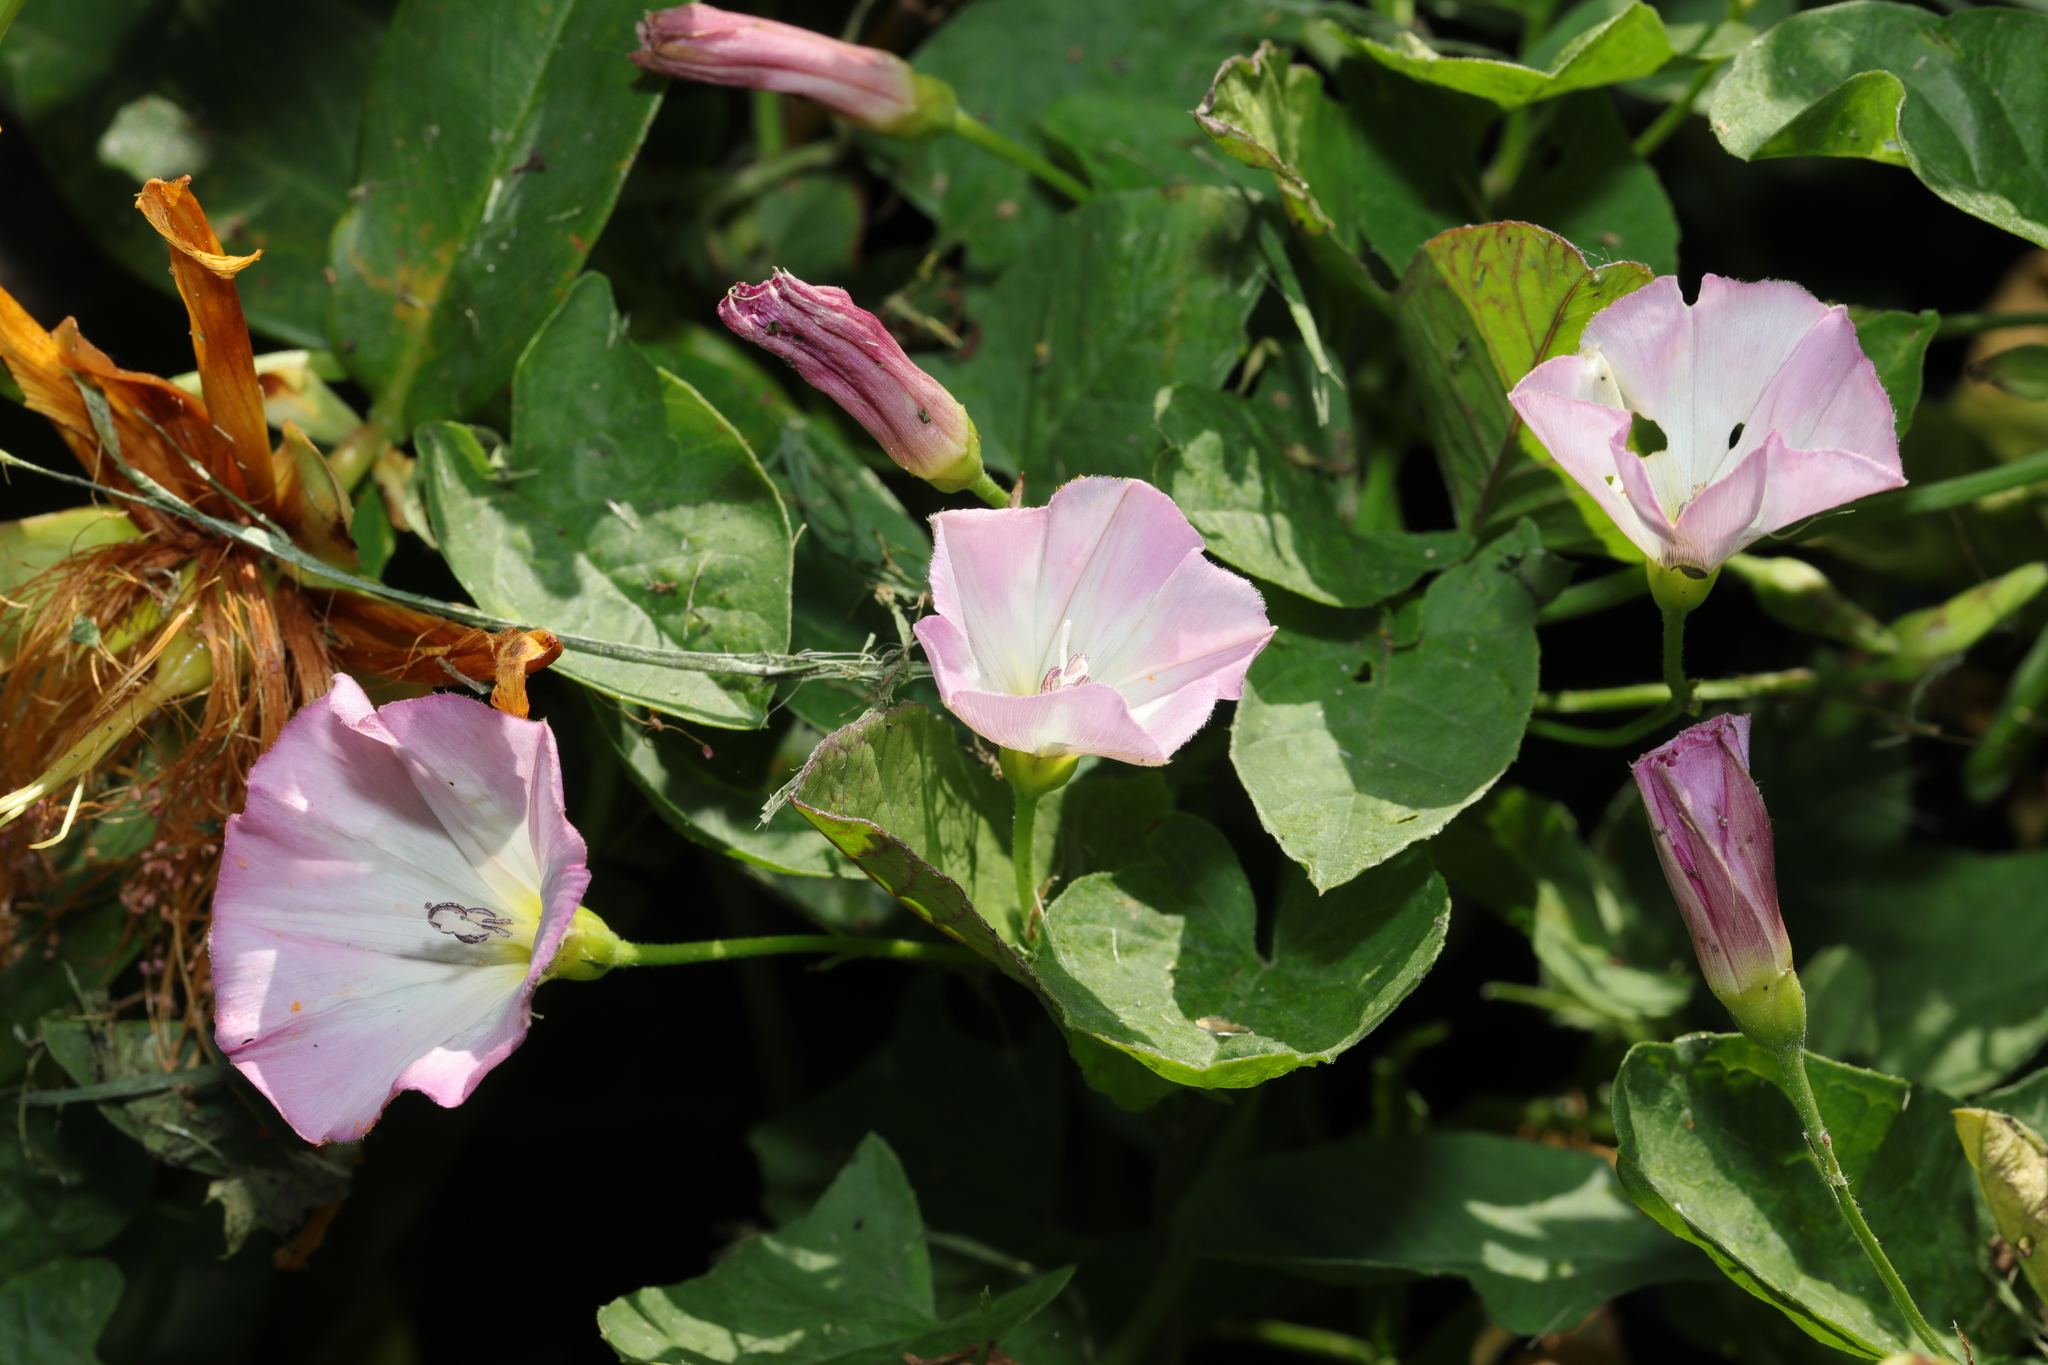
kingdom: Plantae
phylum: Tracheophyta
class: Magnoliopsida
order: Solanales
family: Convolvulaceae
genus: Convolvulus
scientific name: Convolvulus arvensis
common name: Field bindweed
